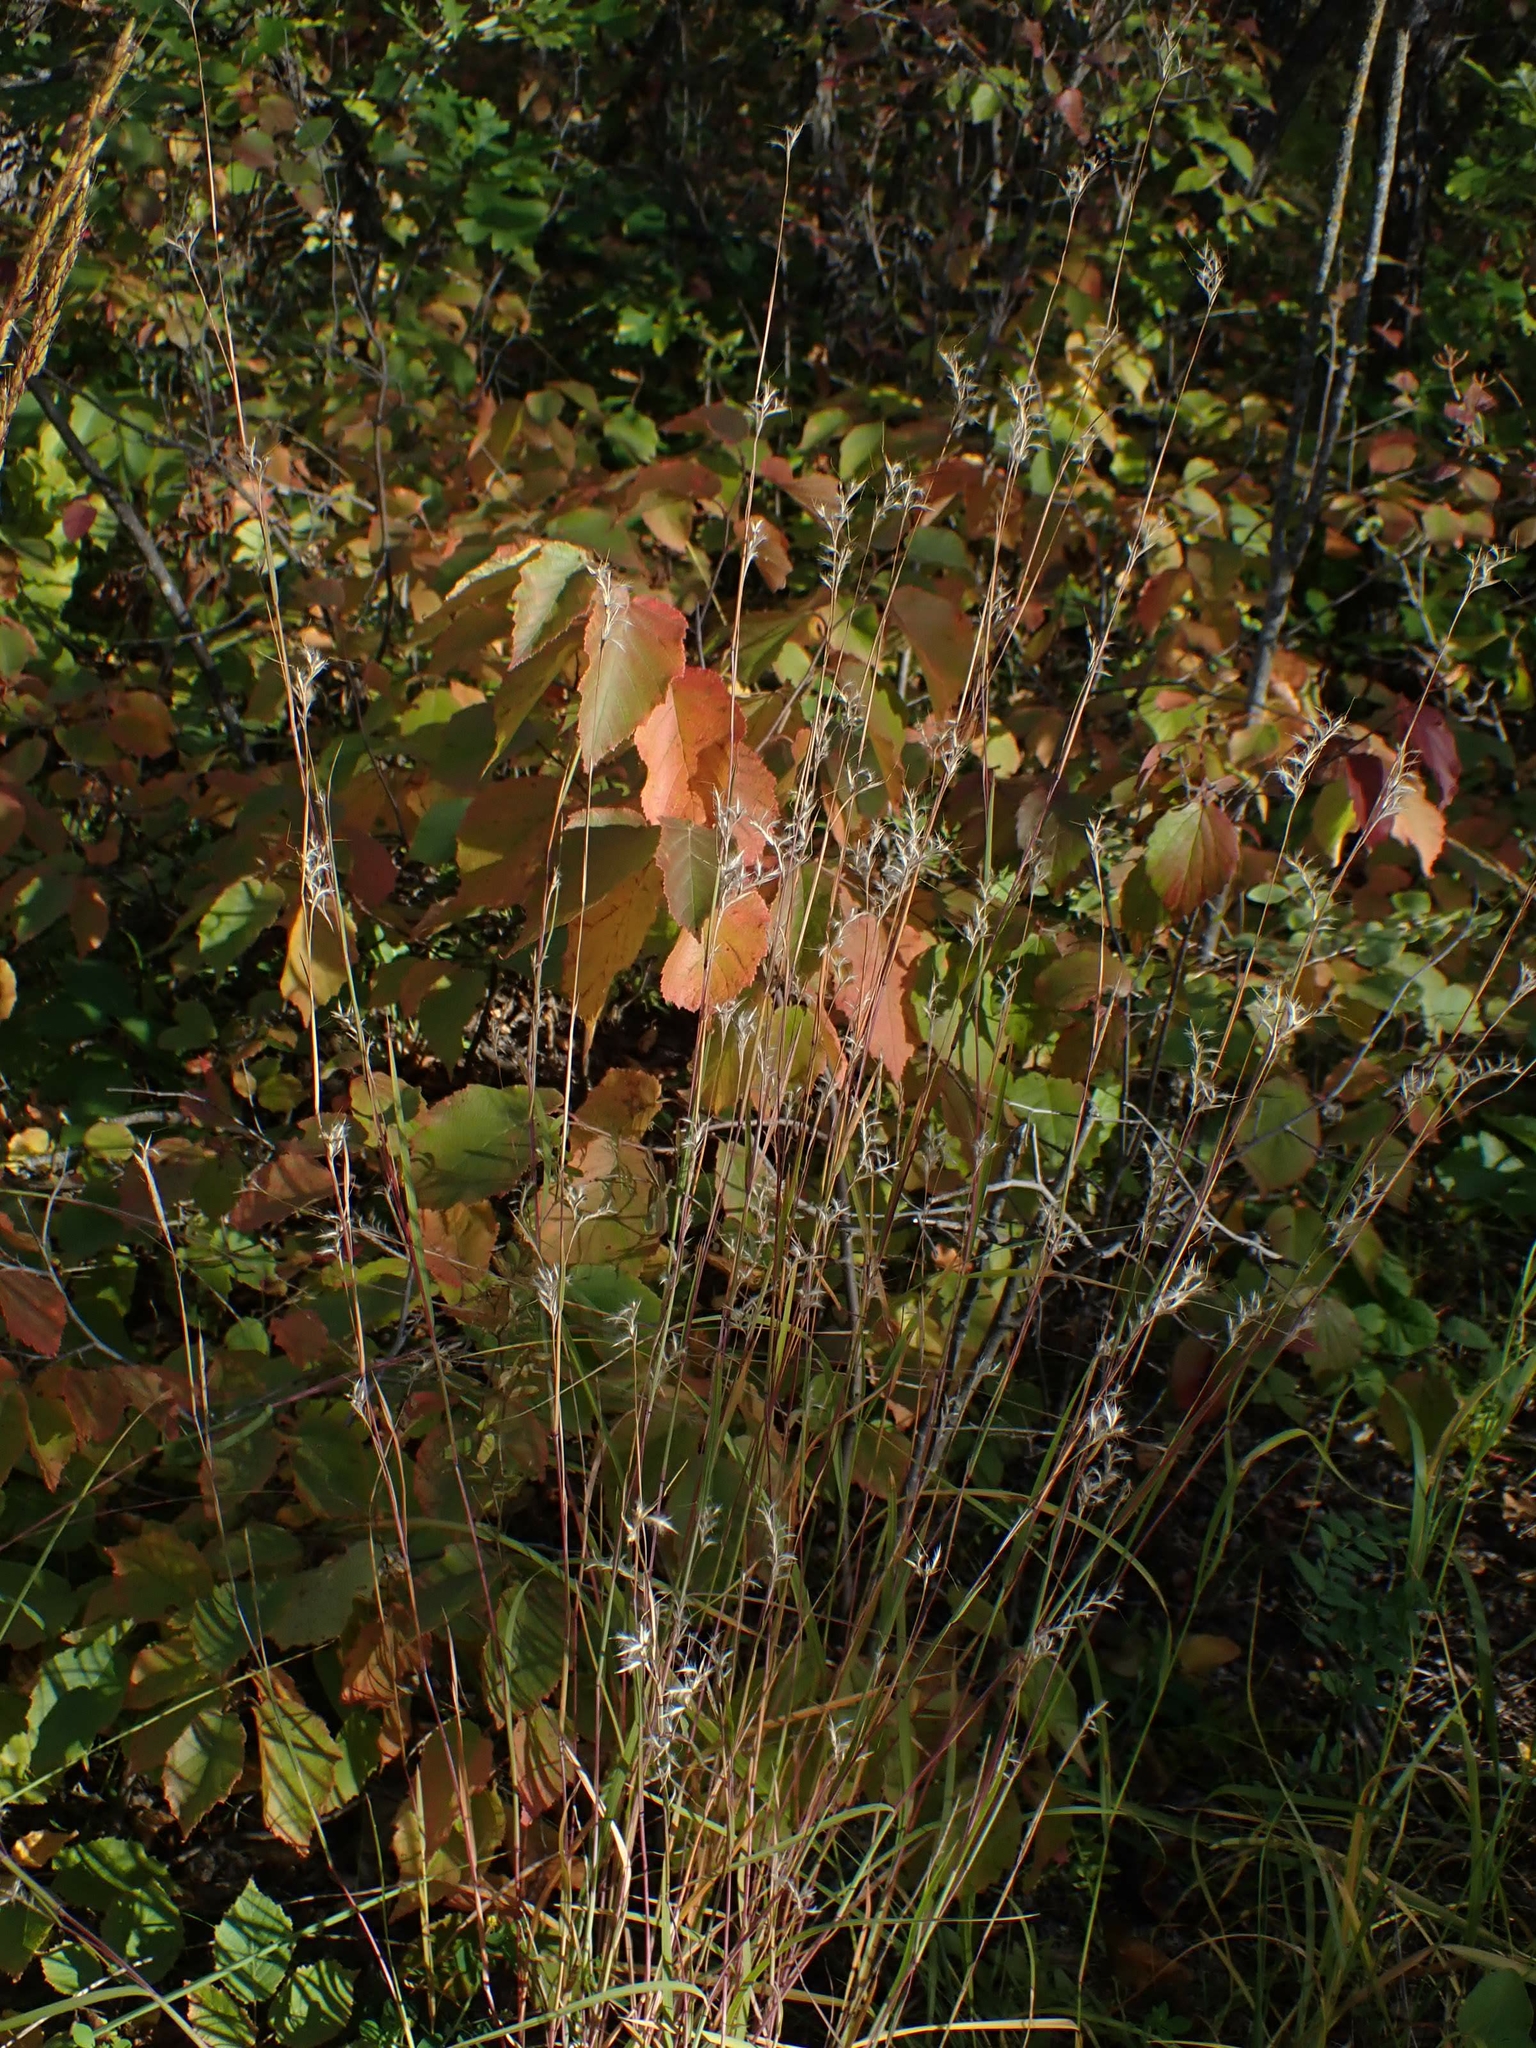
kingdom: Plantae
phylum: Tracheophyta
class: Liliopsida
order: Poales
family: Poaceae
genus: Schizachyrium
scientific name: Schizachyrium scoparium
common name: Little bluestem
